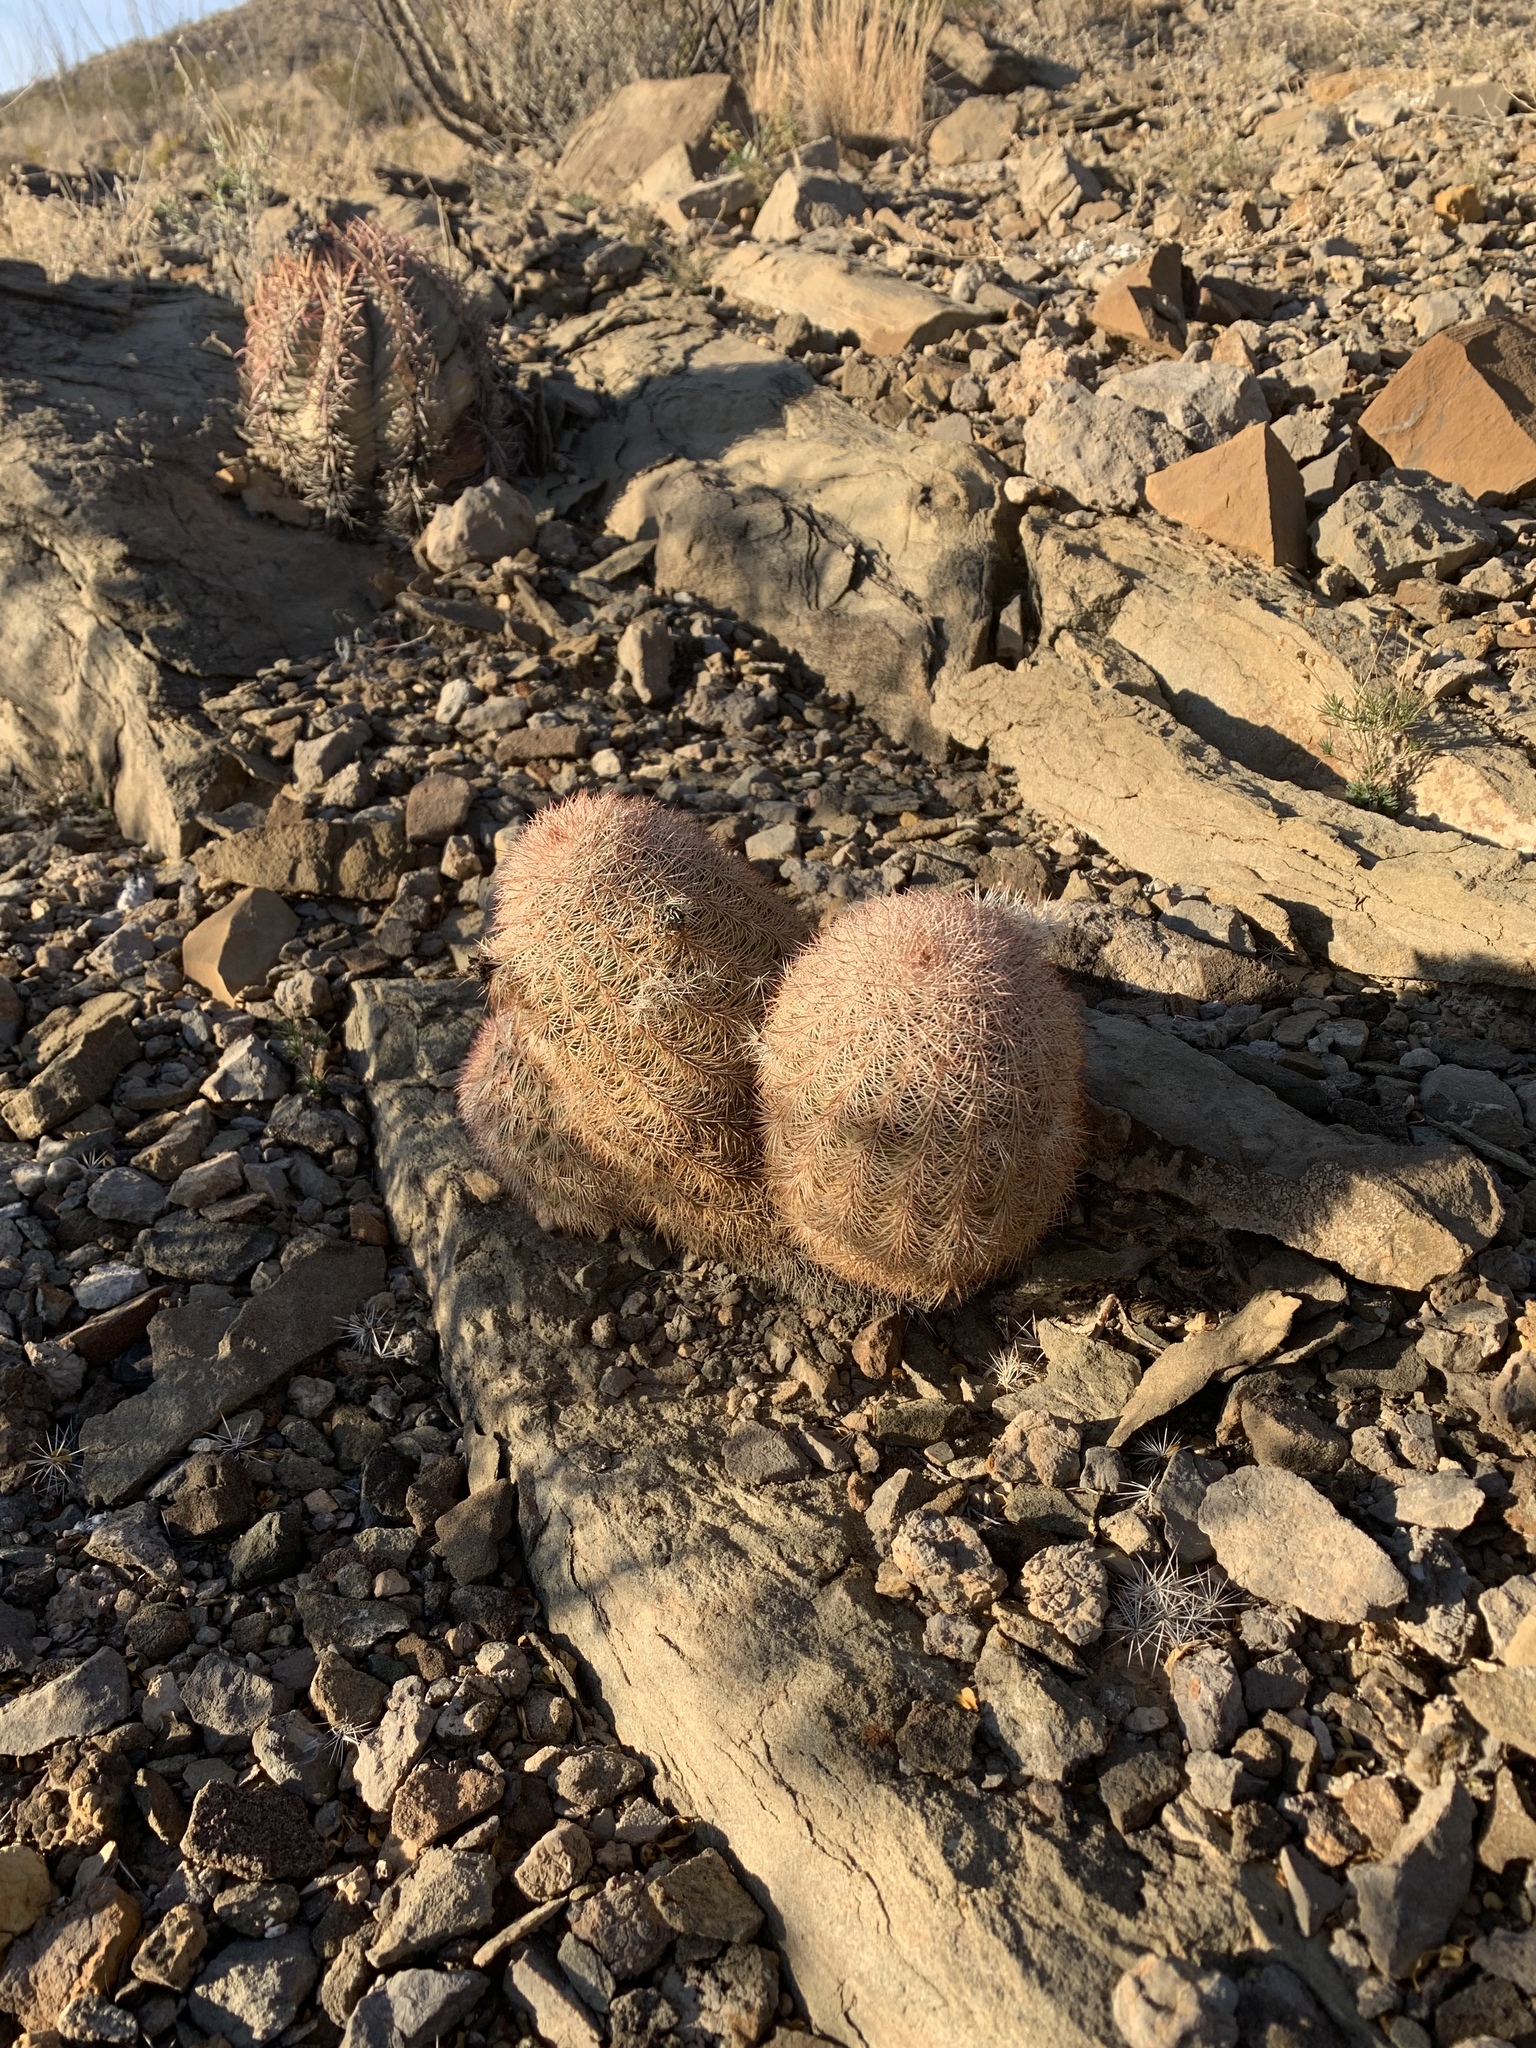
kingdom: Plantae
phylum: Tracheophyta
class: Magnoliopsida
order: Caryophyllales
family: Cactaceae
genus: Echinocereus
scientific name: Echinocereus dasyacanthus
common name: Spiny hedgehog cactus
